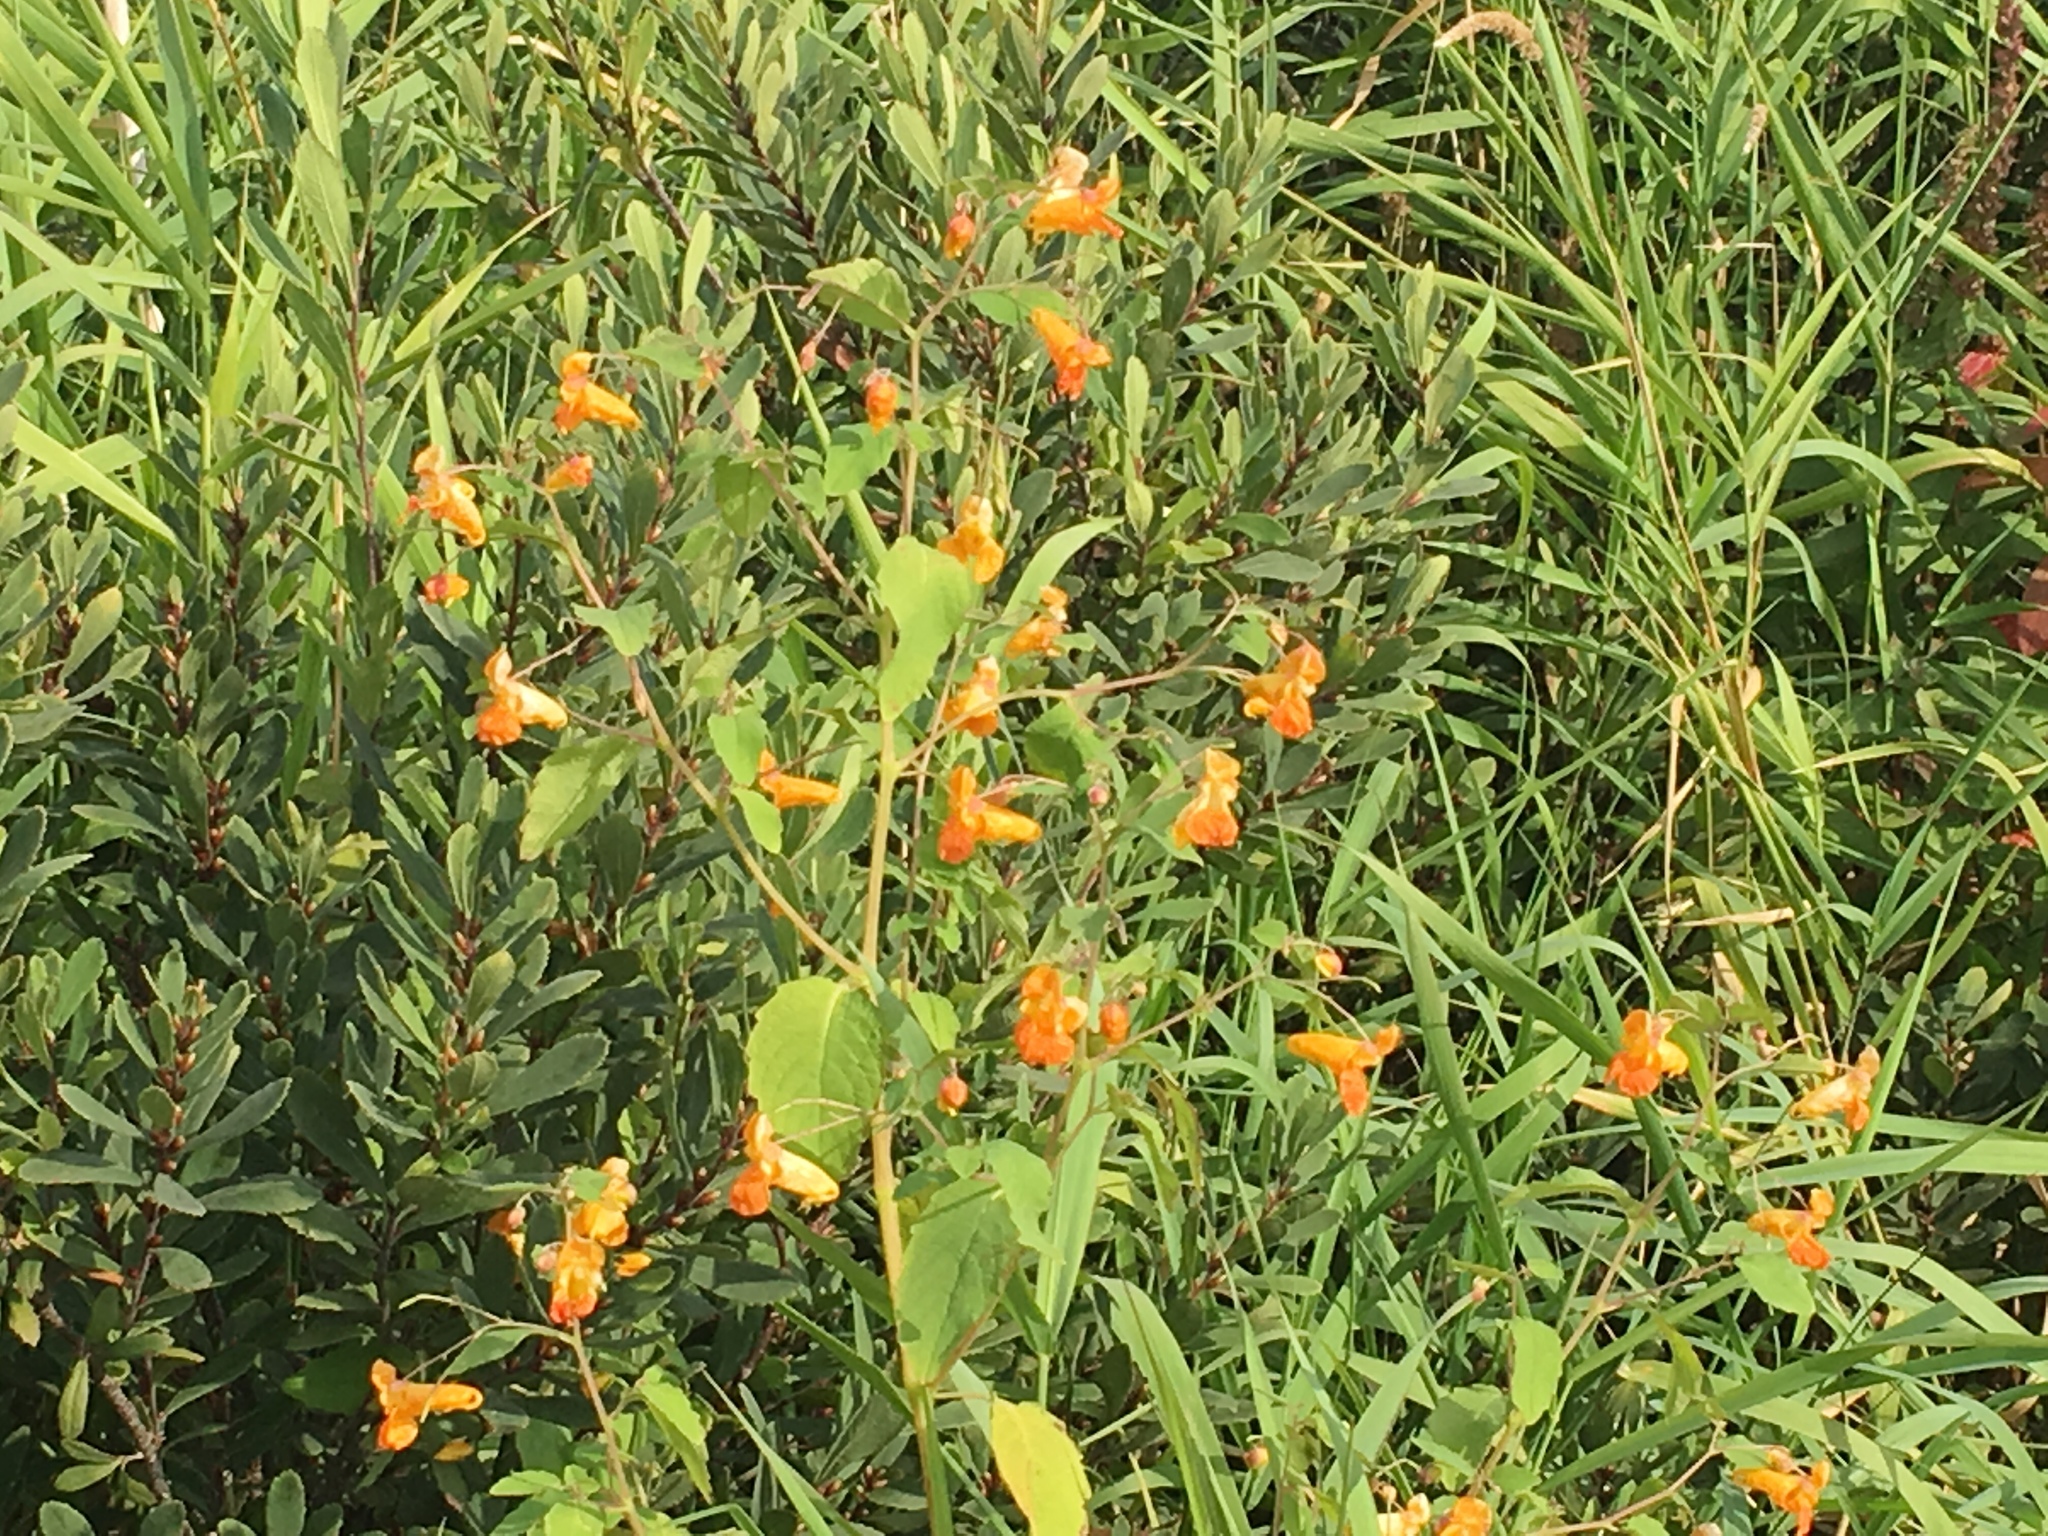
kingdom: Plantae
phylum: Tracheophyta
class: Magnoliopsida
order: Ericales
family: Balsaminaceae
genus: Impatiens
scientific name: Impatiens capensis
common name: Orange balsam
